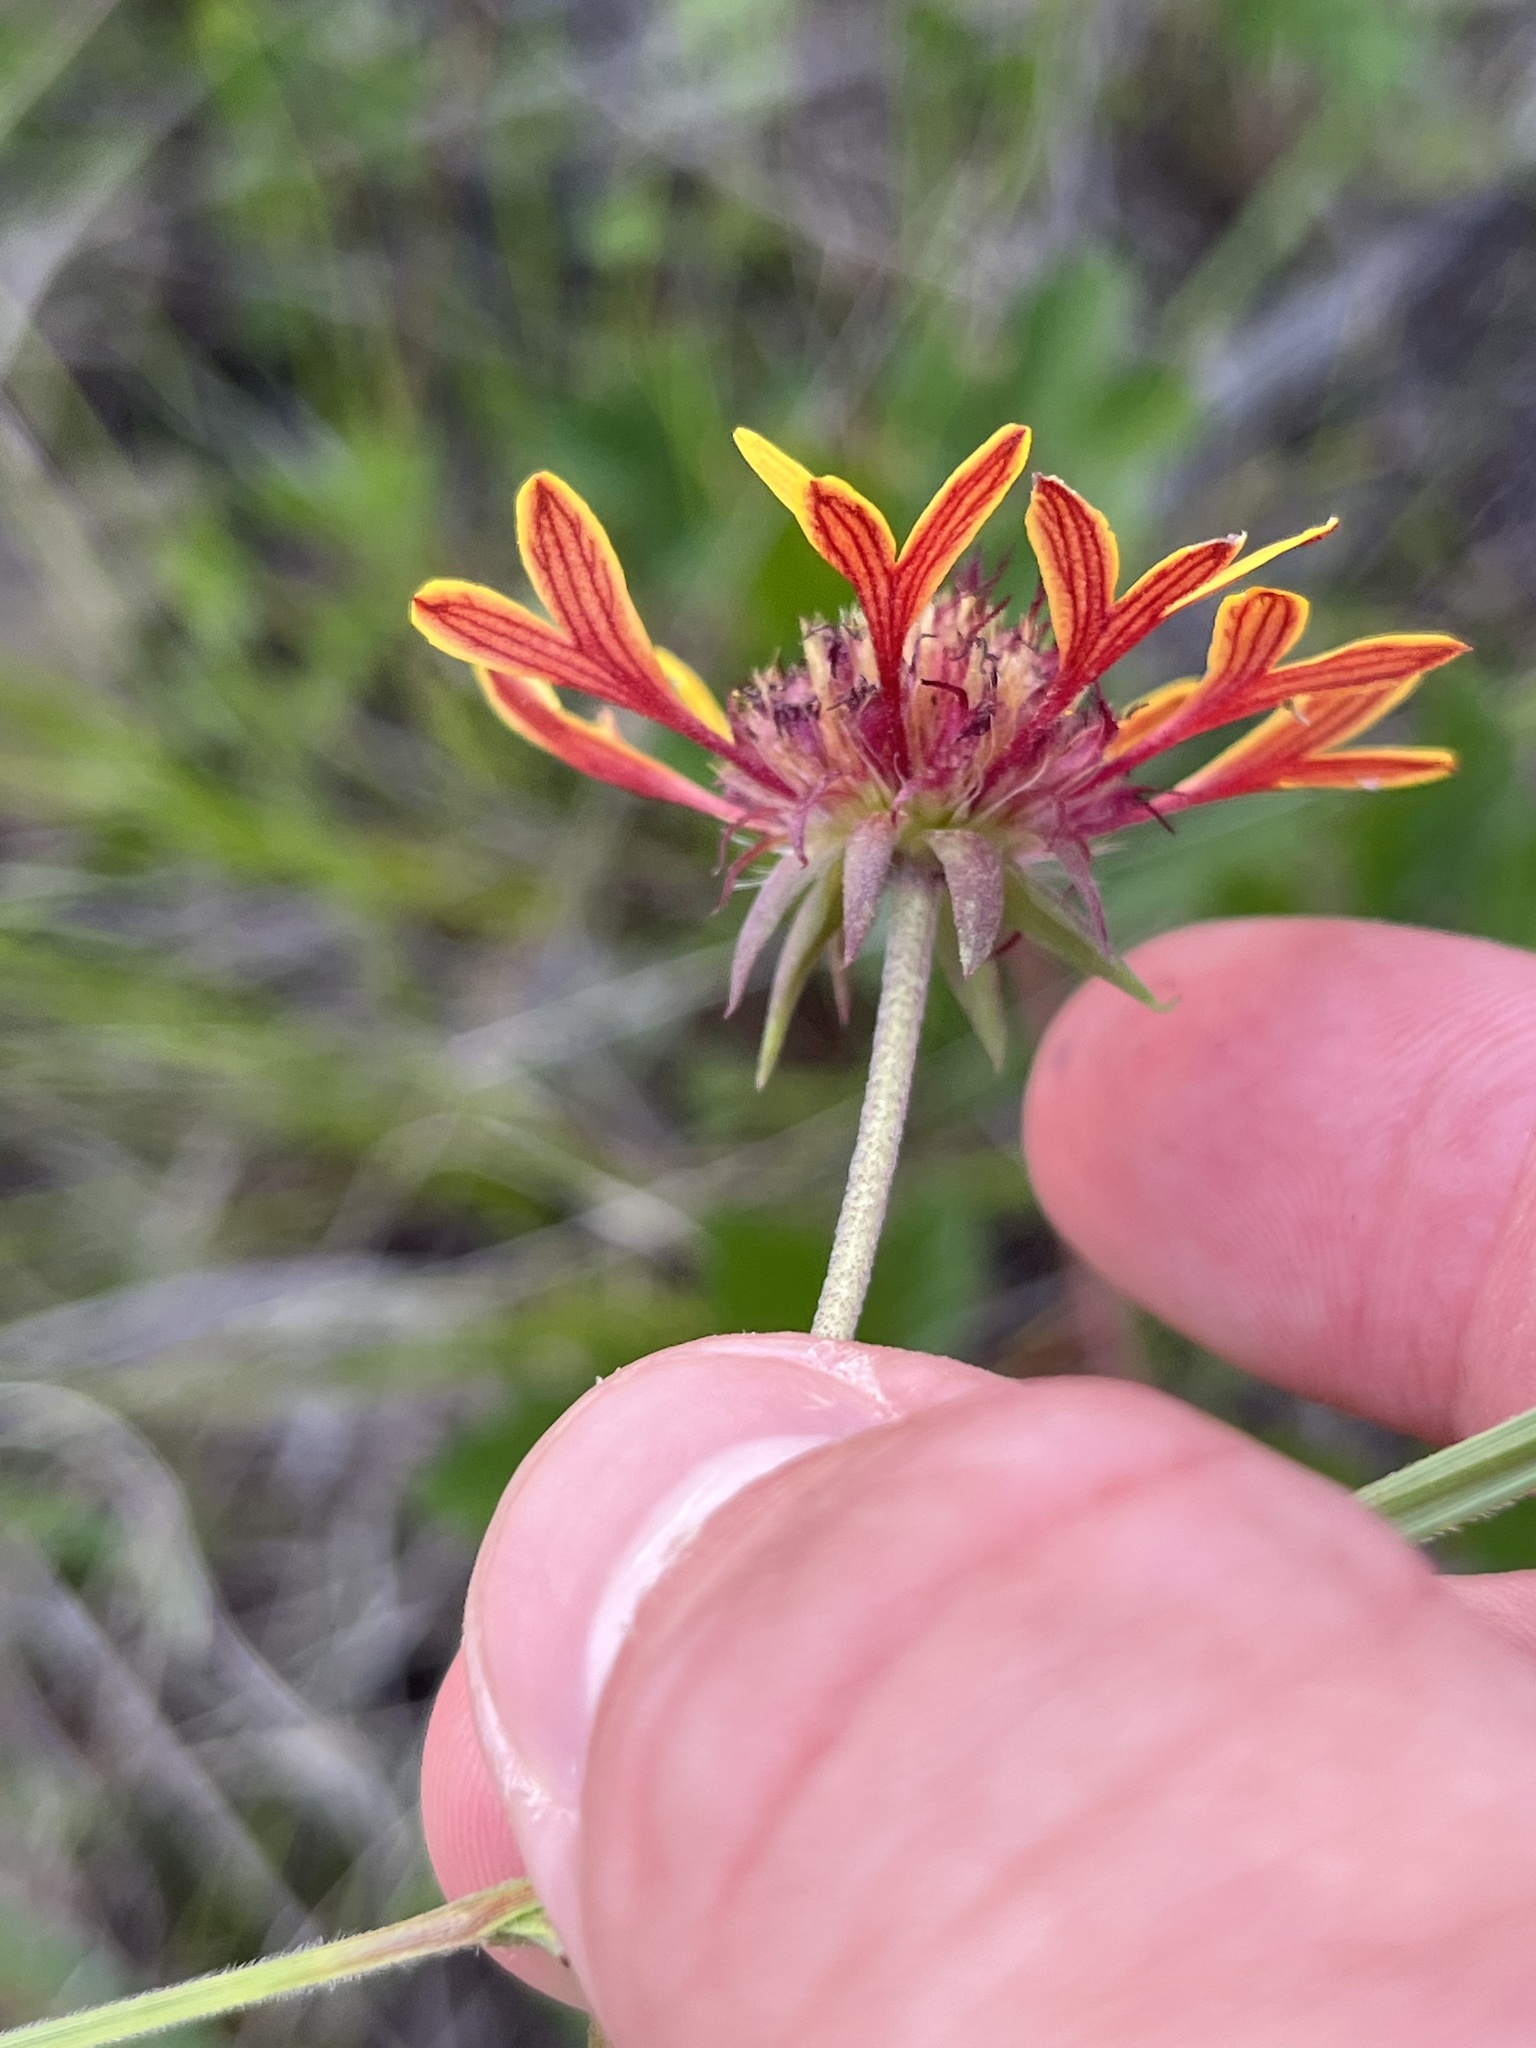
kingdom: Plantae
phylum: Tracheophyta
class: Magnoliopsida
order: Asterales
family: Asteraceae
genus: Gaillardia
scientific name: Gaillardia aestivalis
